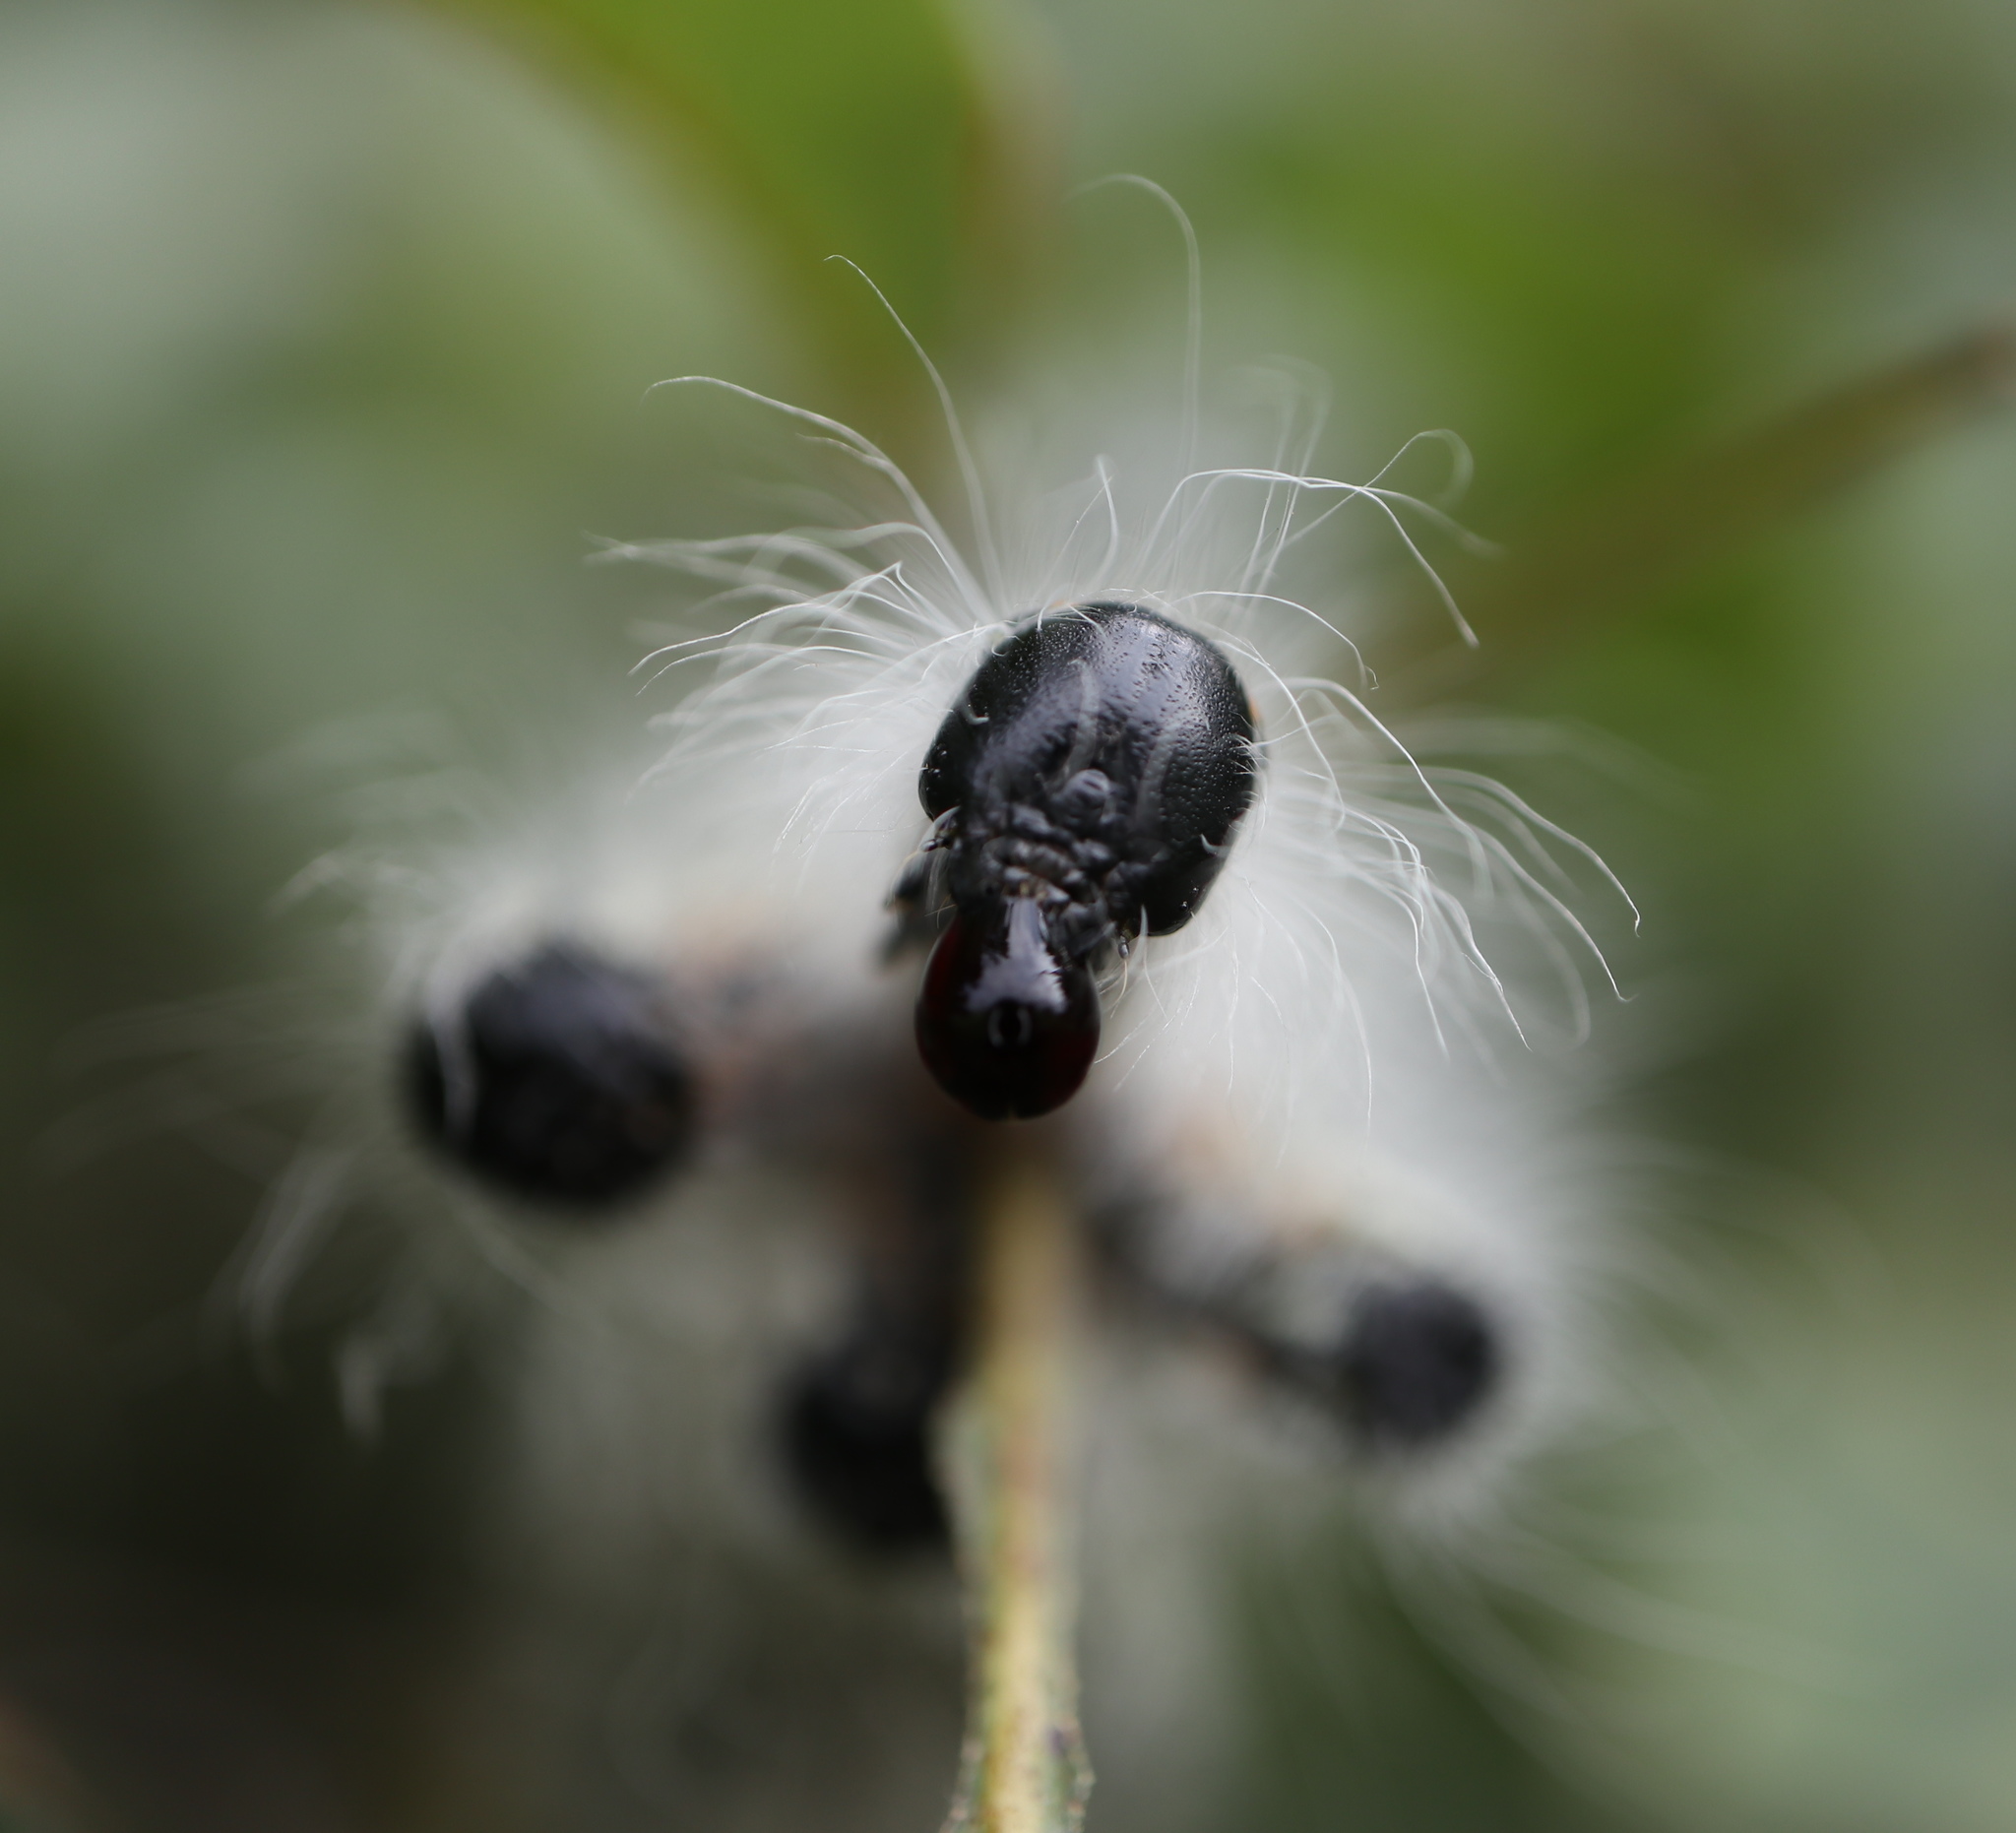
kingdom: Animalia
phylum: Arthropoda
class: Insecta
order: Lepidoptera
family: Notodontidae
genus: Datana
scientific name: Datana contracta
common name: Contracted datana
